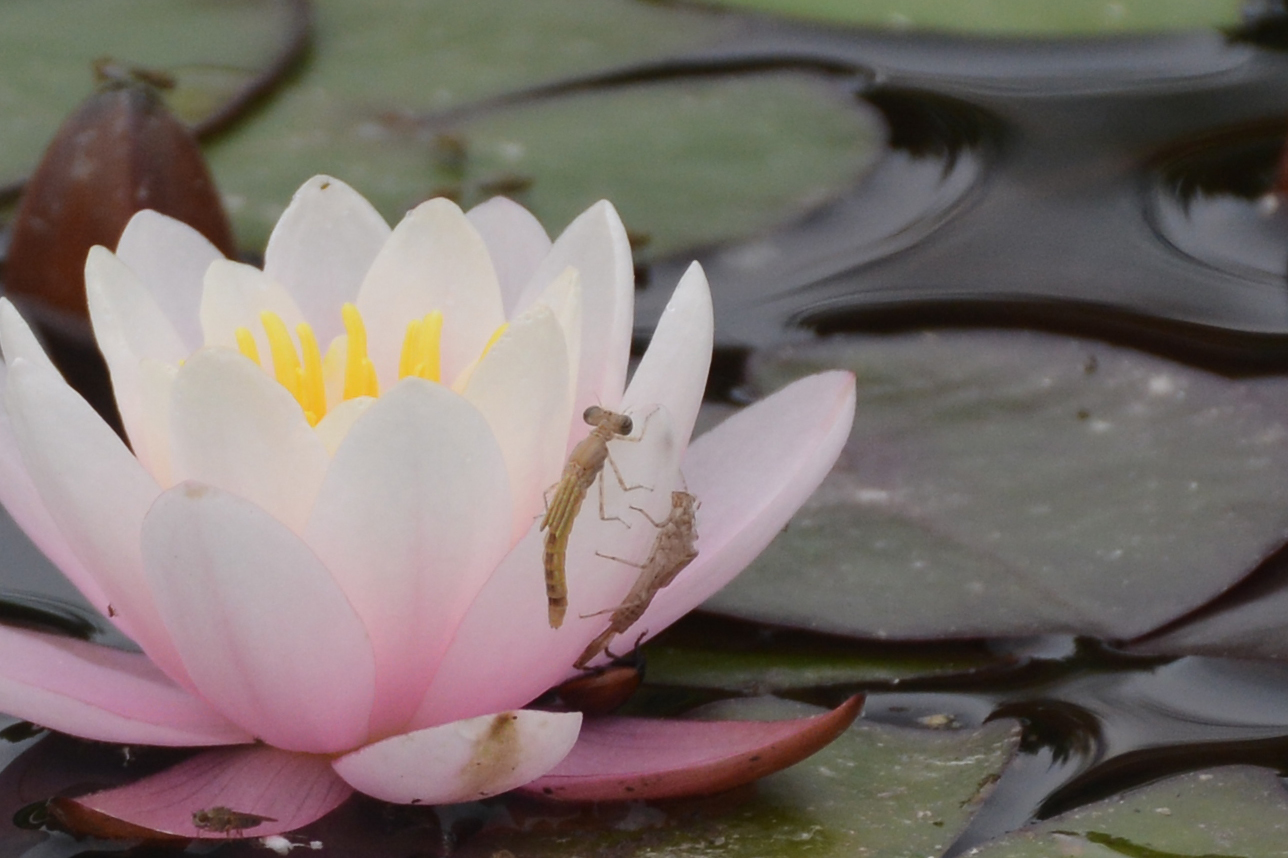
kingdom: Animalia
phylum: Arthropoda
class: Insecta
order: Odonata
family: Platycnemididae
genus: Platycnemis
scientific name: Platycnemis dealbata
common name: Ivory featherleg
